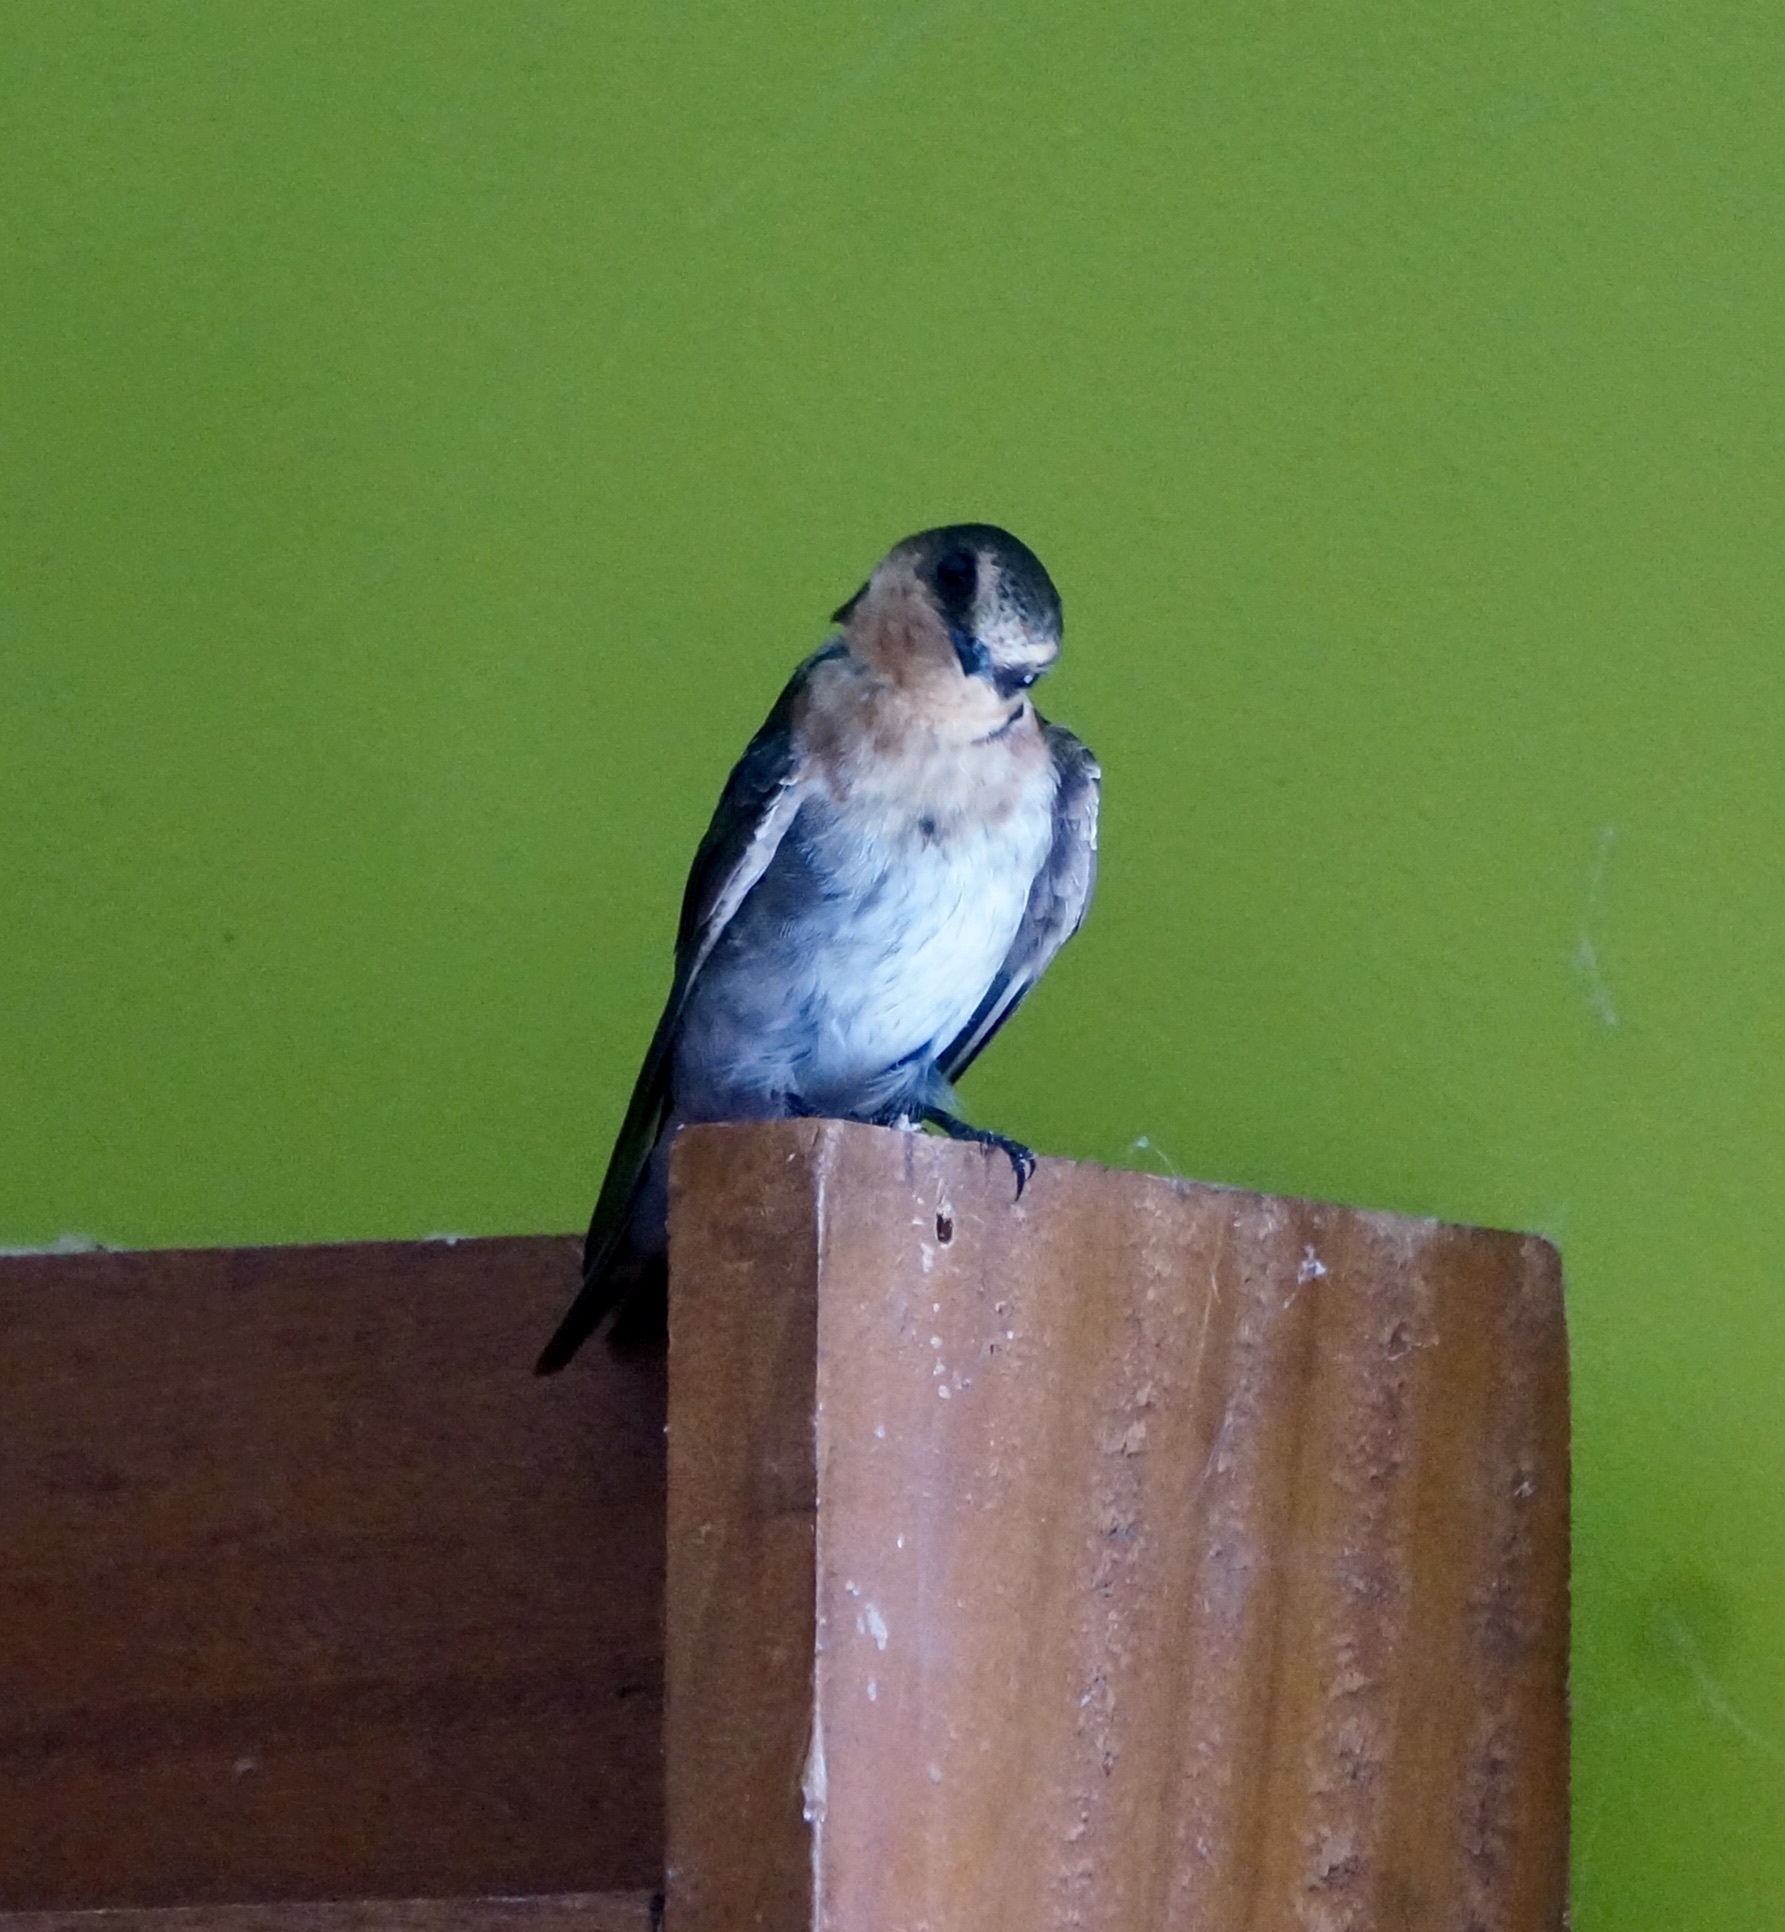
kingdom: Animalia
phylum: Chordata
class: Aves
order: Passeriformes
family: Hirundinidae
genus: Hirundo
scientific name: Hirundo neoxena
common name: Welcome swallow
